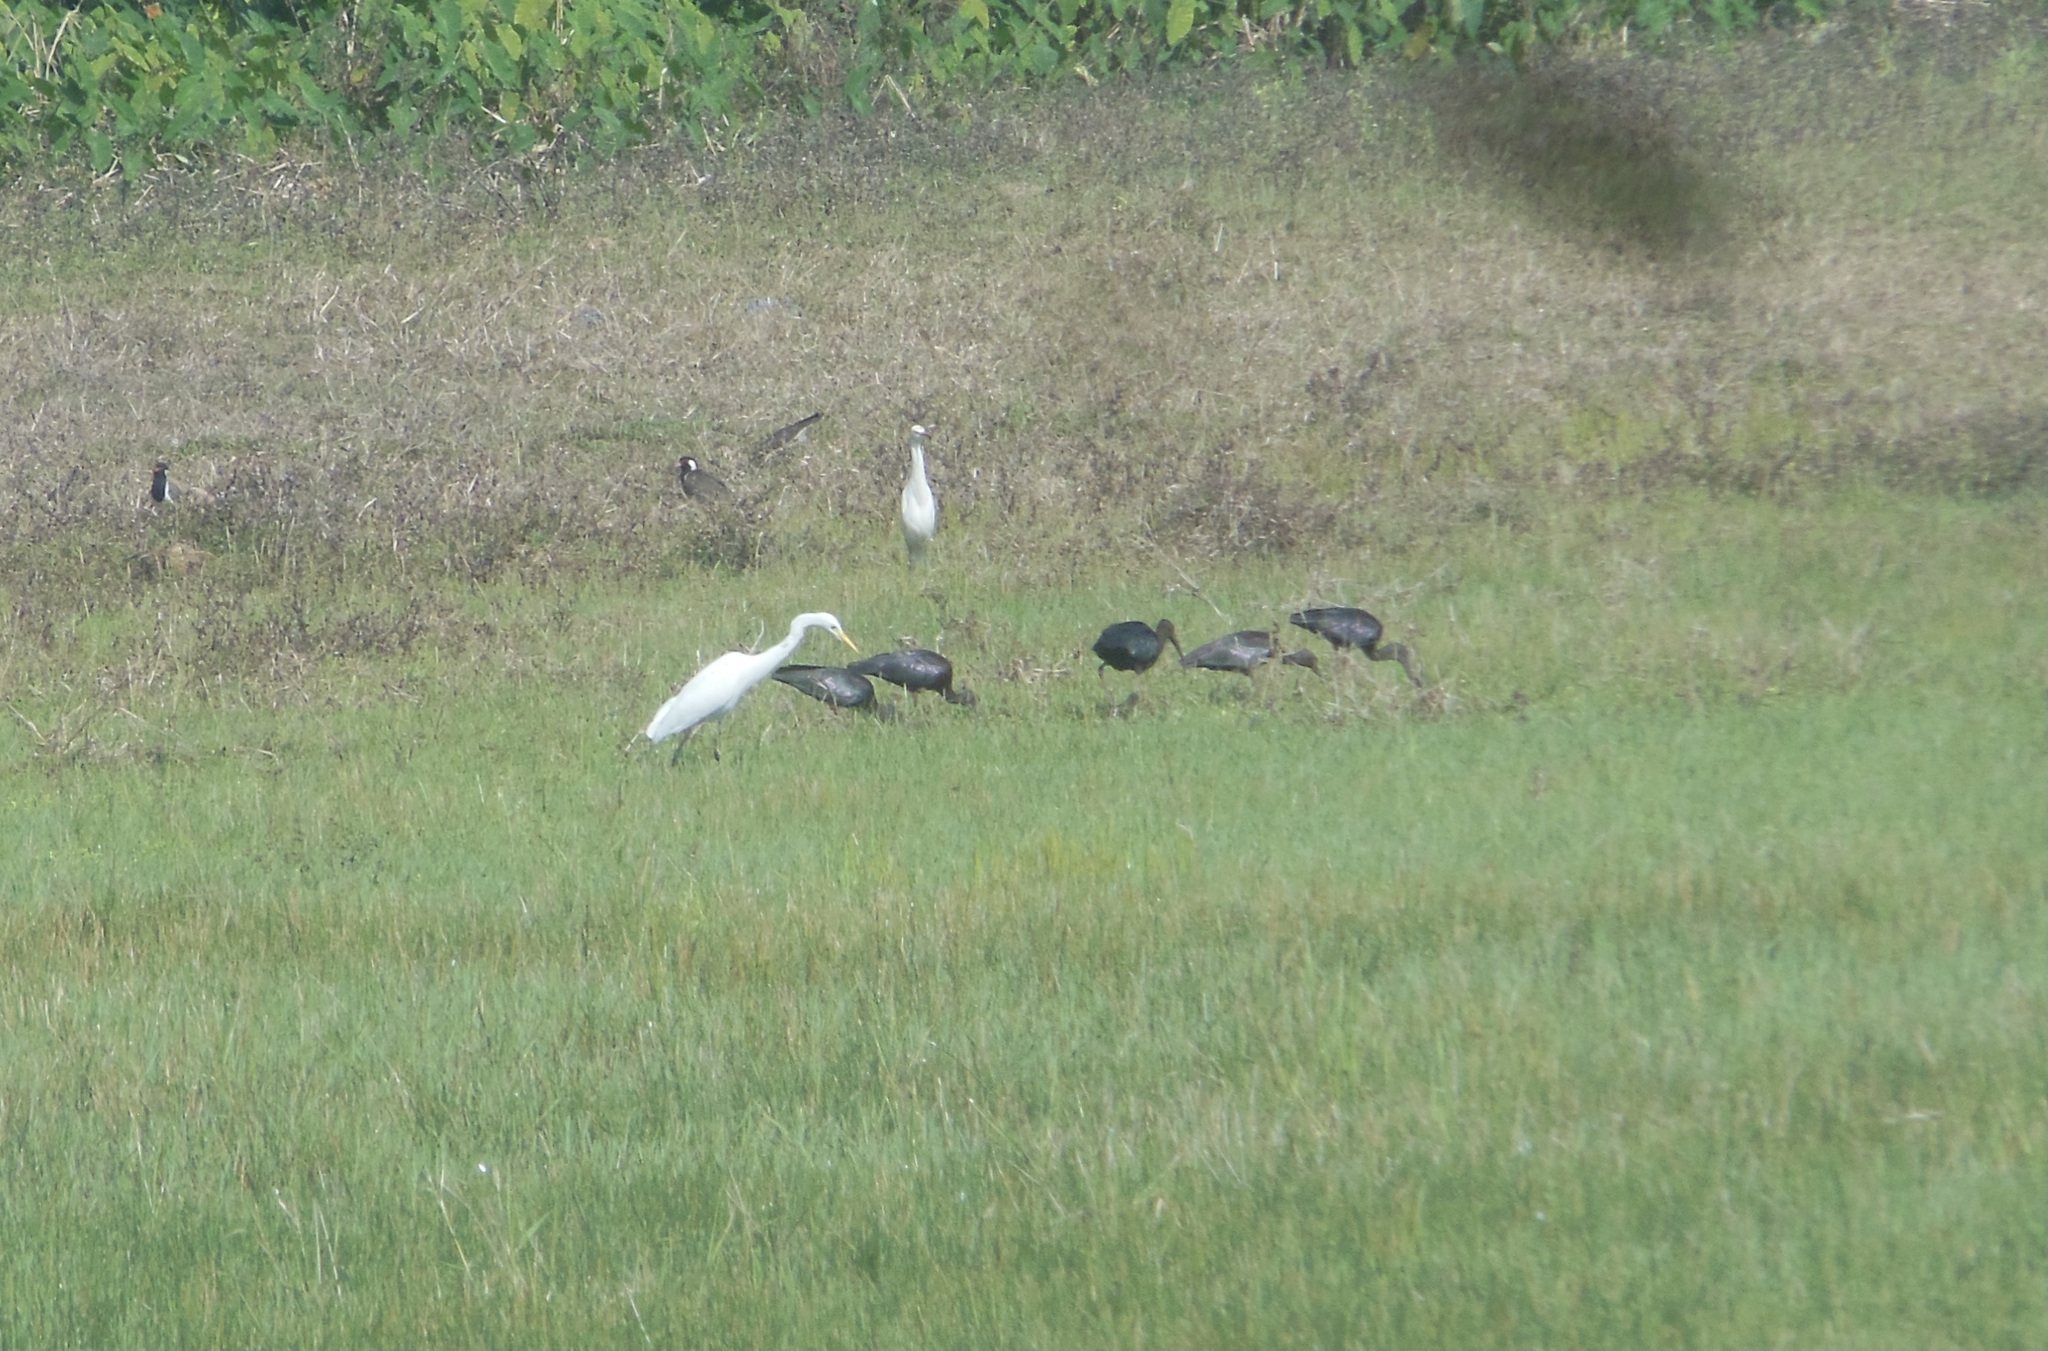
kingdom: Animalia
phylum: Chordata
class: Aves
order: Pelecaniformes
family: Threskiornithidae
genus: Plegadis
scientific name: Plegadis falcinellus
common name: Glossy ibis
